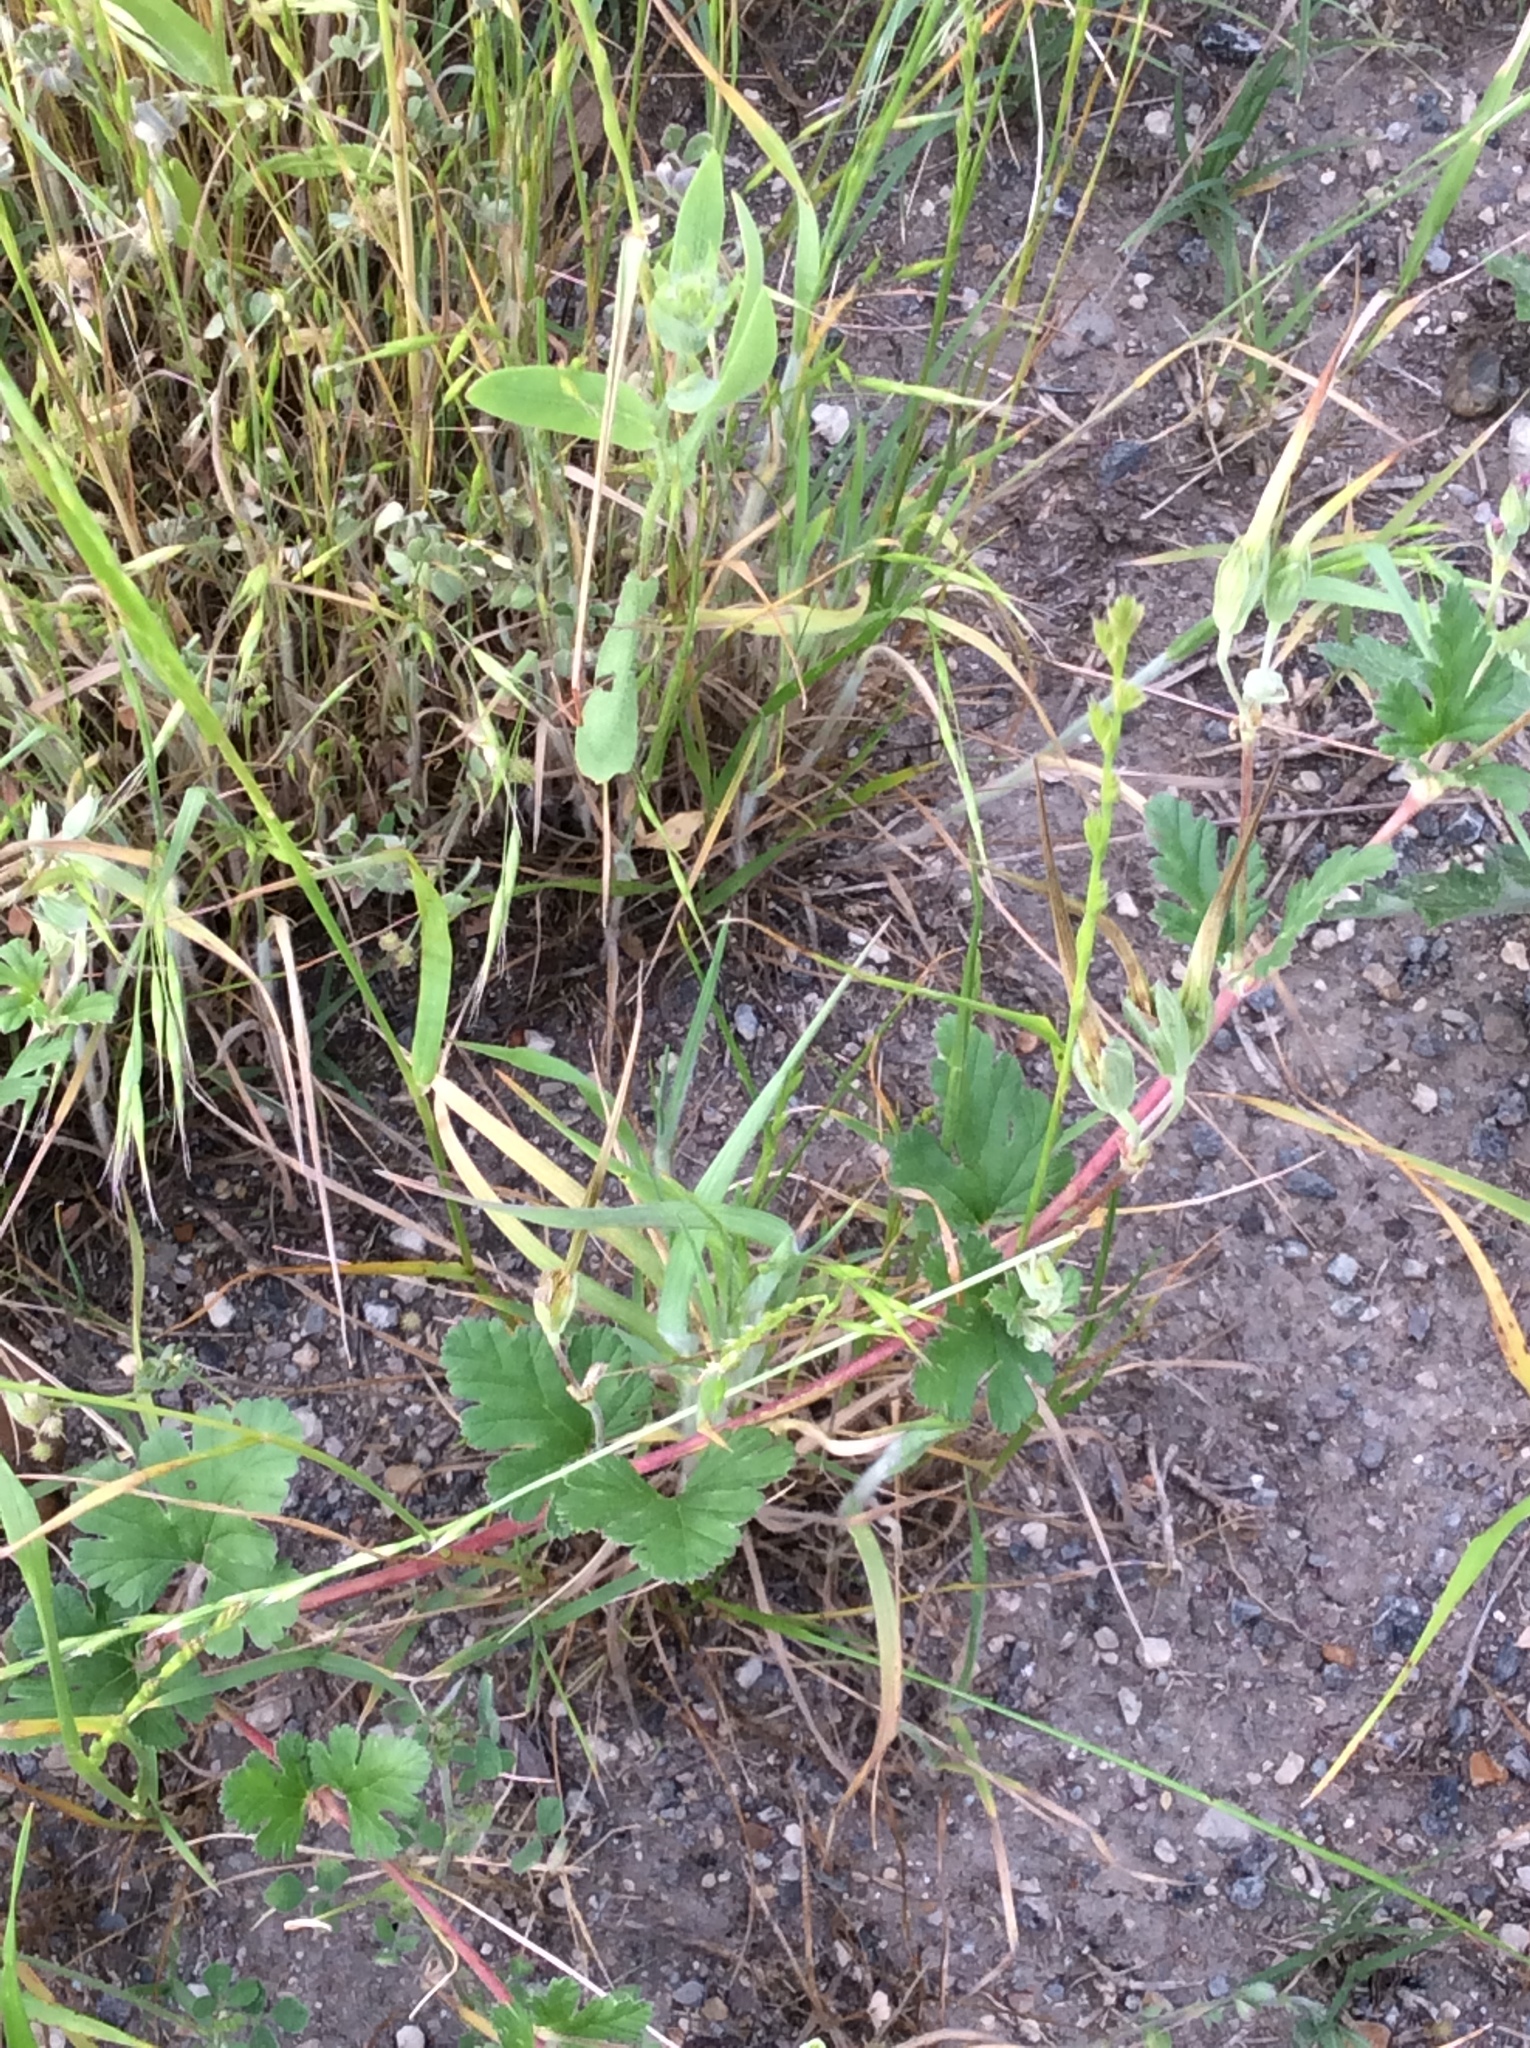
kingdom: Plantae
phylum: Tracheophyta
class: Magnoliopsida
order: Geraniales
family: Geraniaceae
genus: Erodium
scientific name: Erodium texanum
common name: Texas stork's-bill
